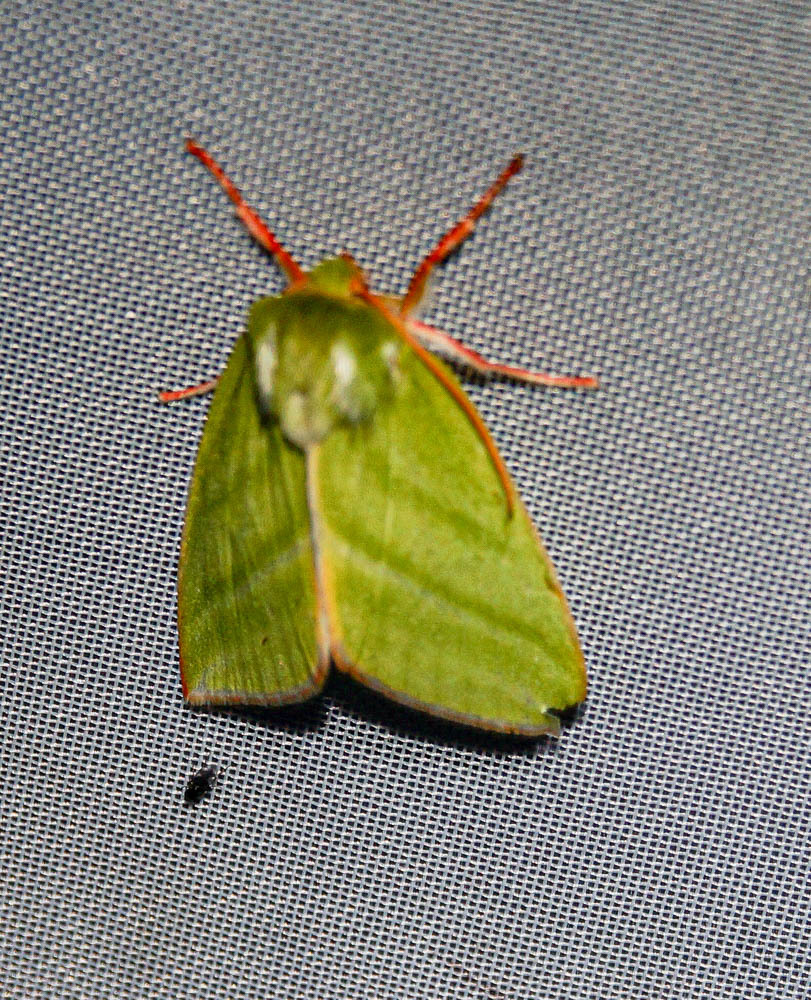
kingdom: Animalia
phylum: Arthropoda
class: Insecta
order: Lepidoptera
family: Nolidae
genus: Pseudoips
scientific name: Pseudoips prasinana
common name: Green silver-lines
